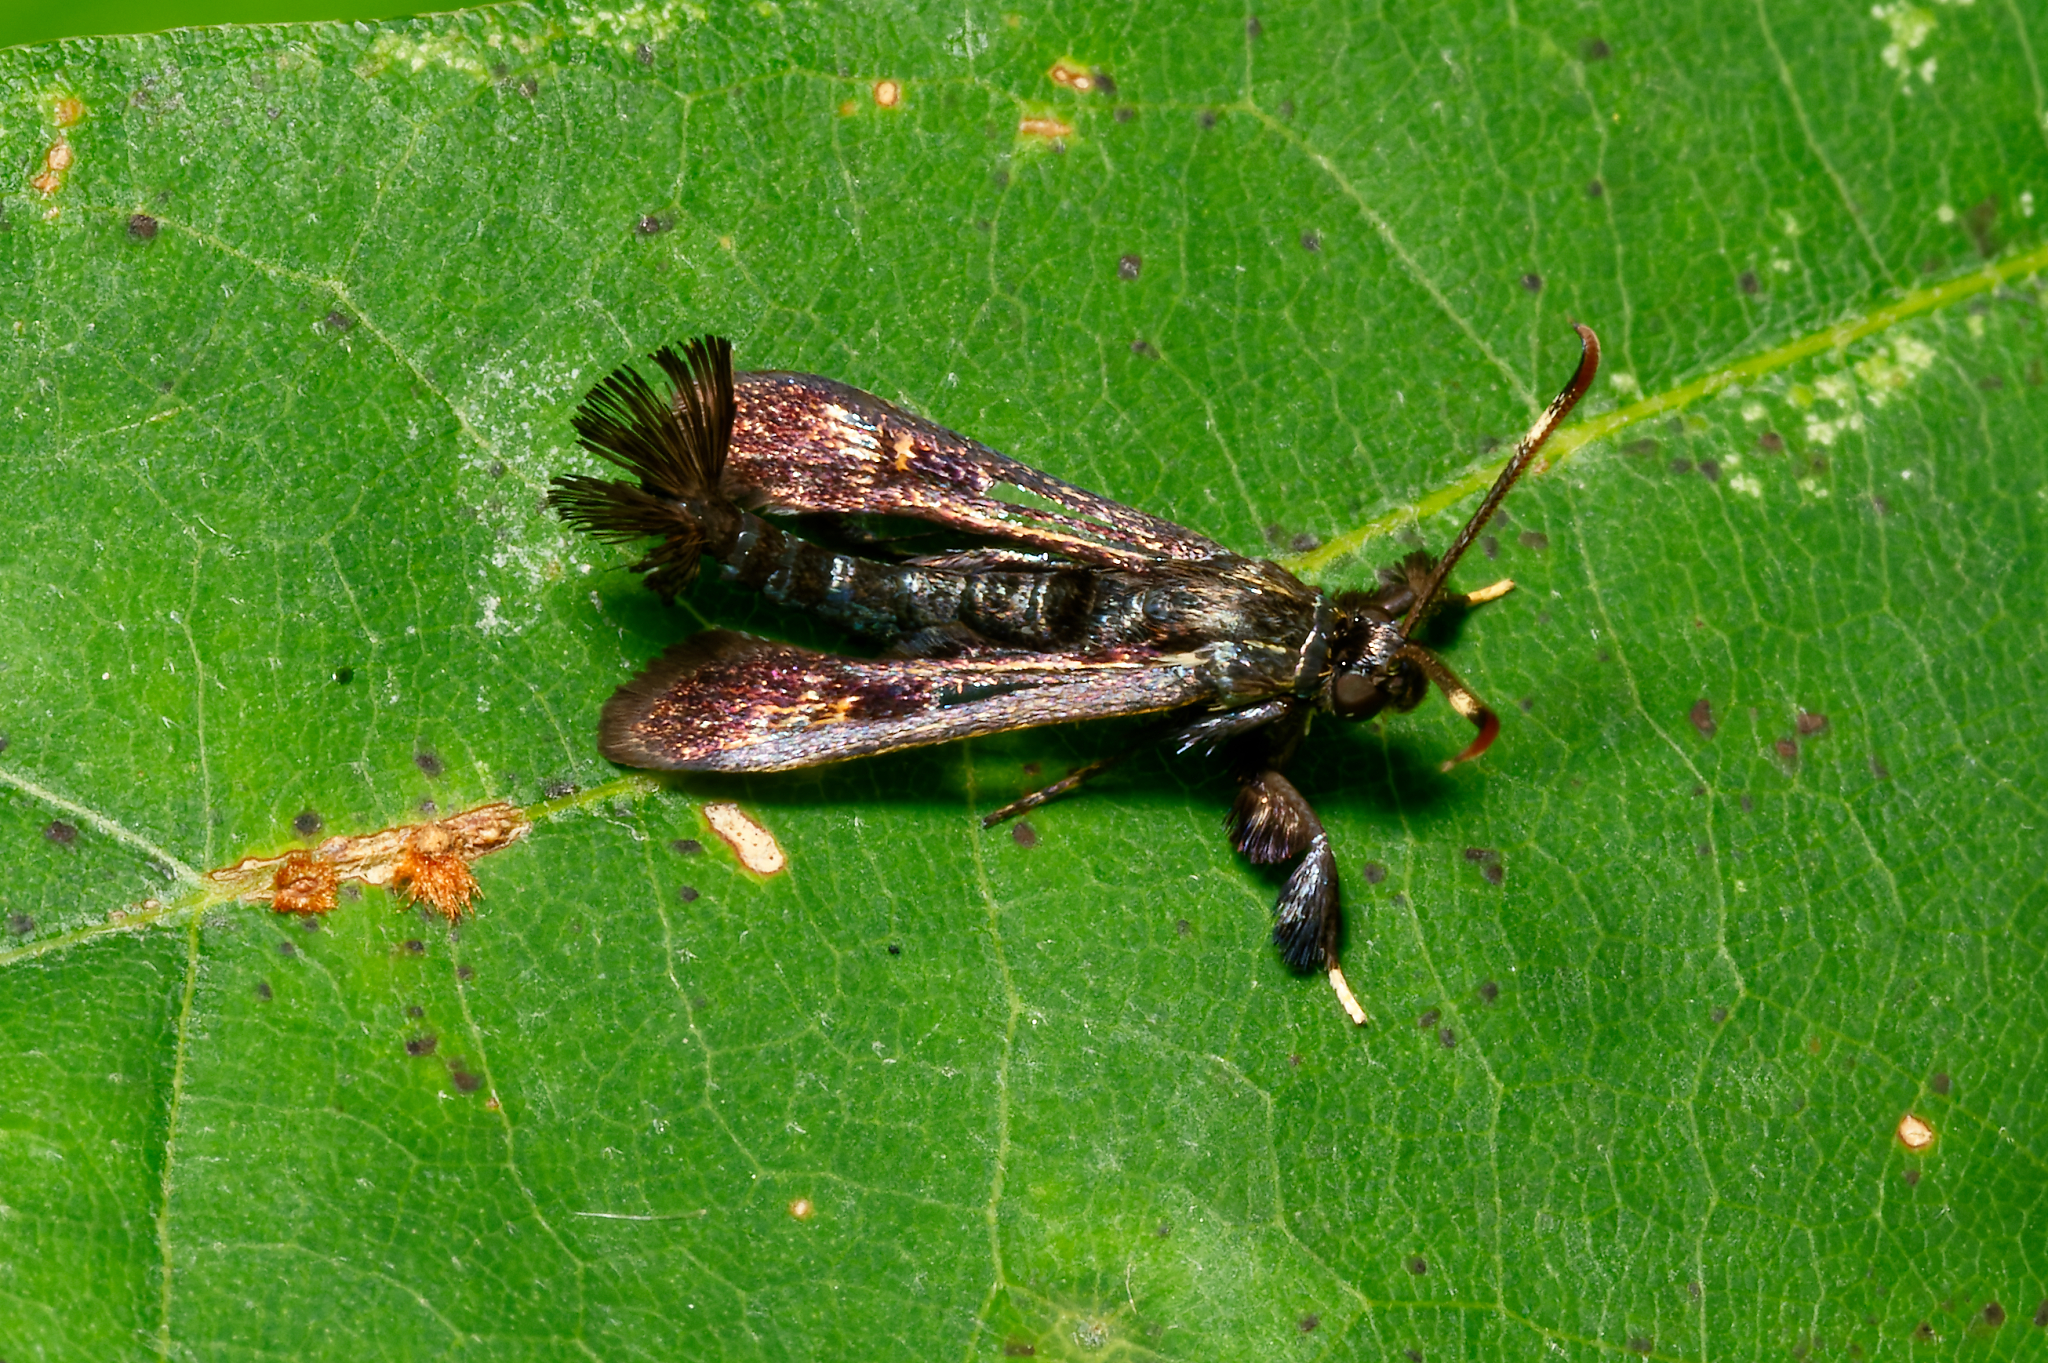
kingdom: Animalia
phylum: Arthropoda
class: Insecta
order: Lepidoptera
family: Sesiidae
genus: Albuna
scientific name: Albuna fraxini
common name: Virginia creeper clearwing
